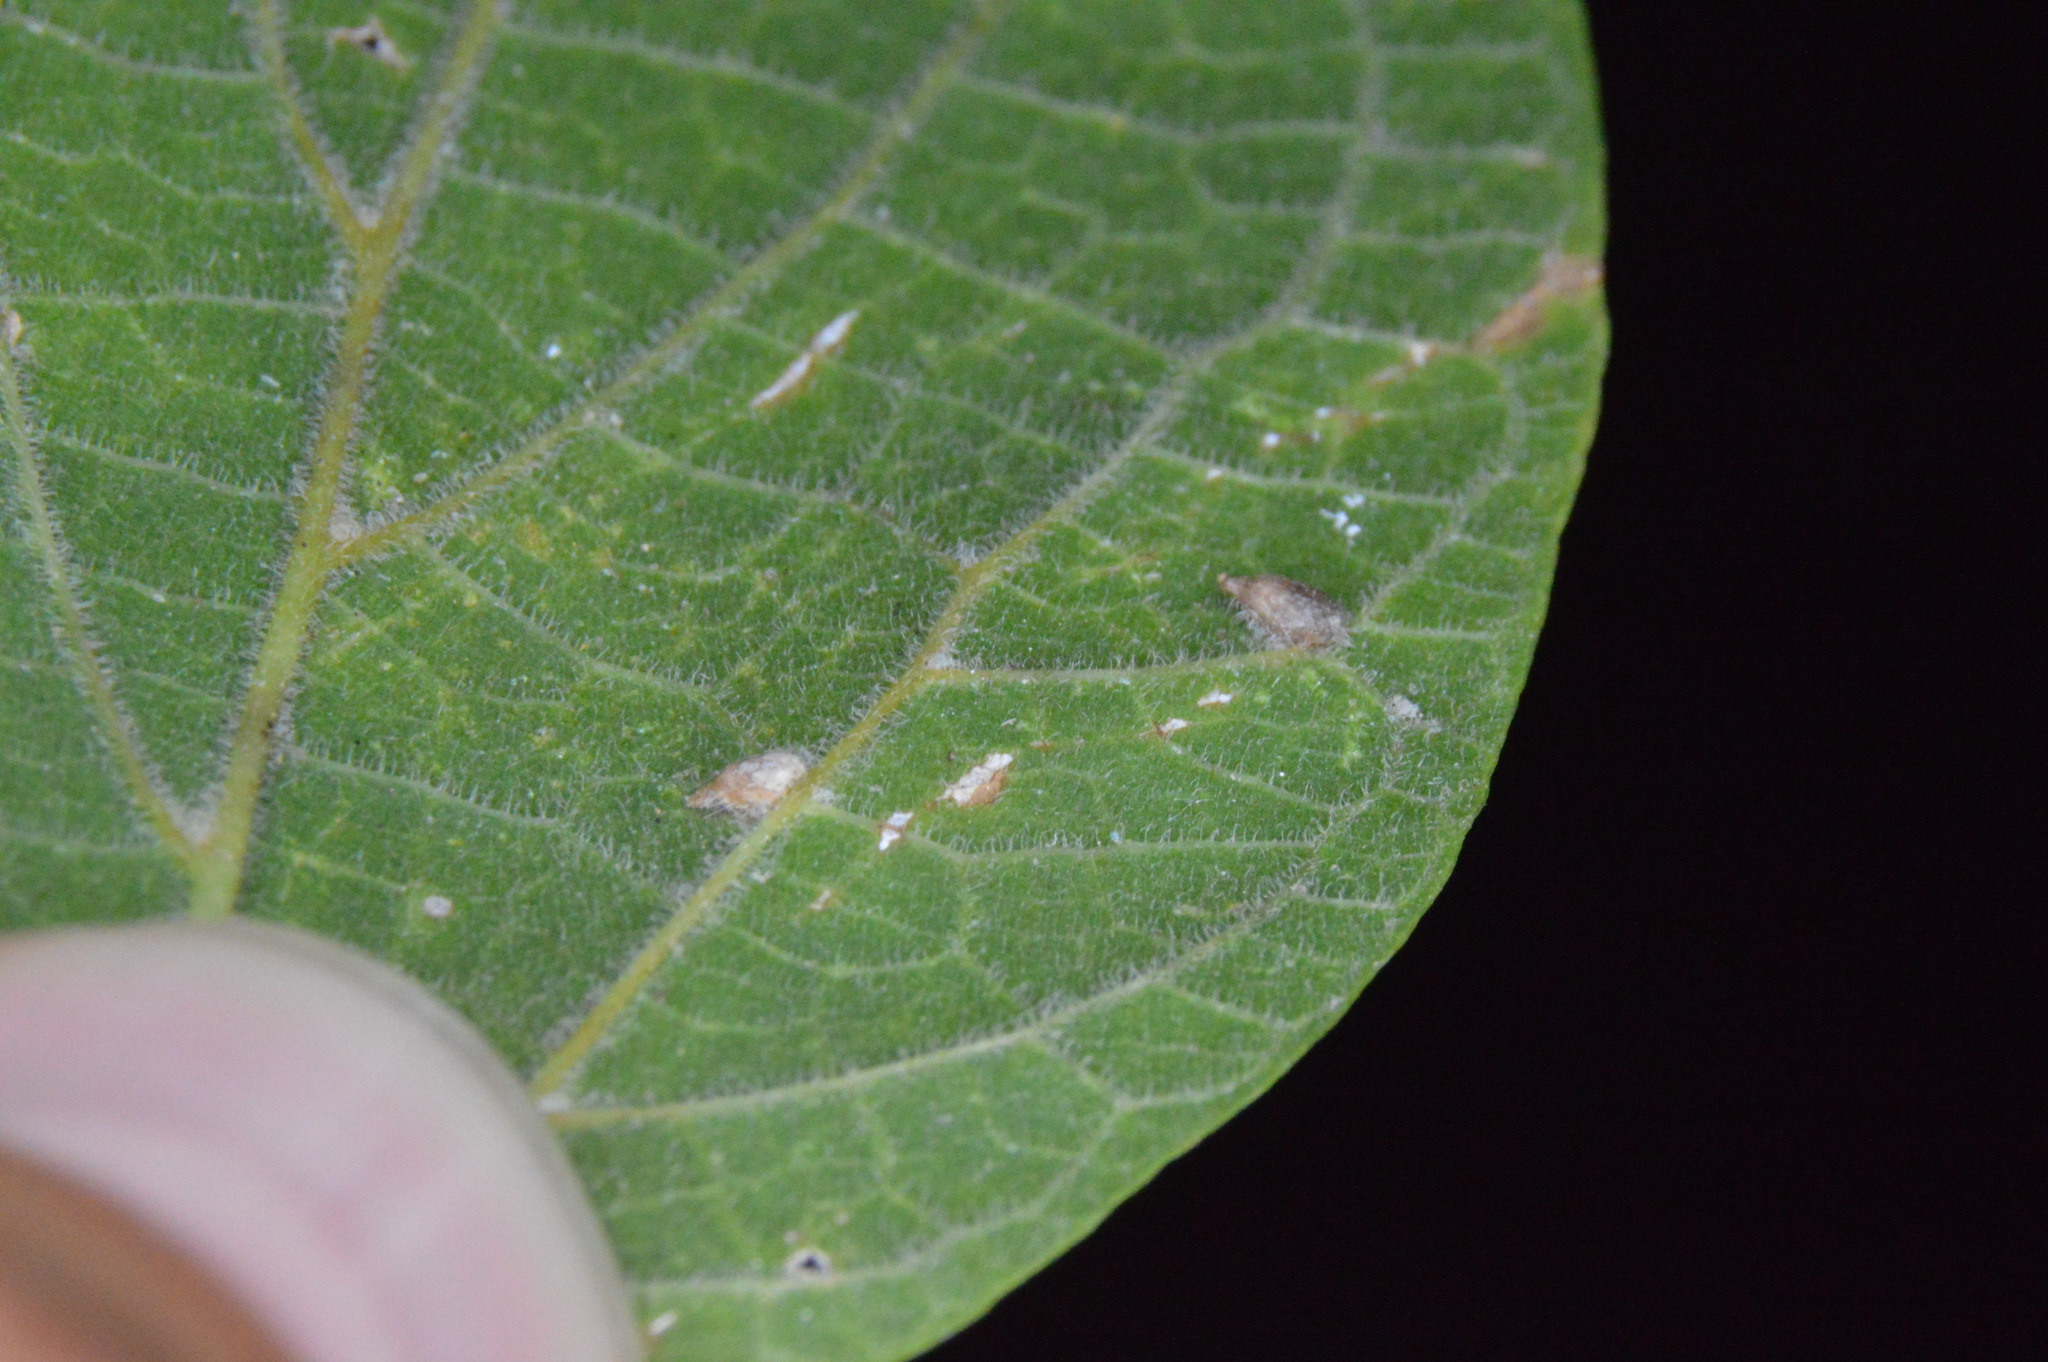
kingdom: Animalia
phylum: Arthropoda
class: Insecta
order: Diptera
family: Cecidomyiidae
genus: Celticecis
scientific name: Celticecis supina
